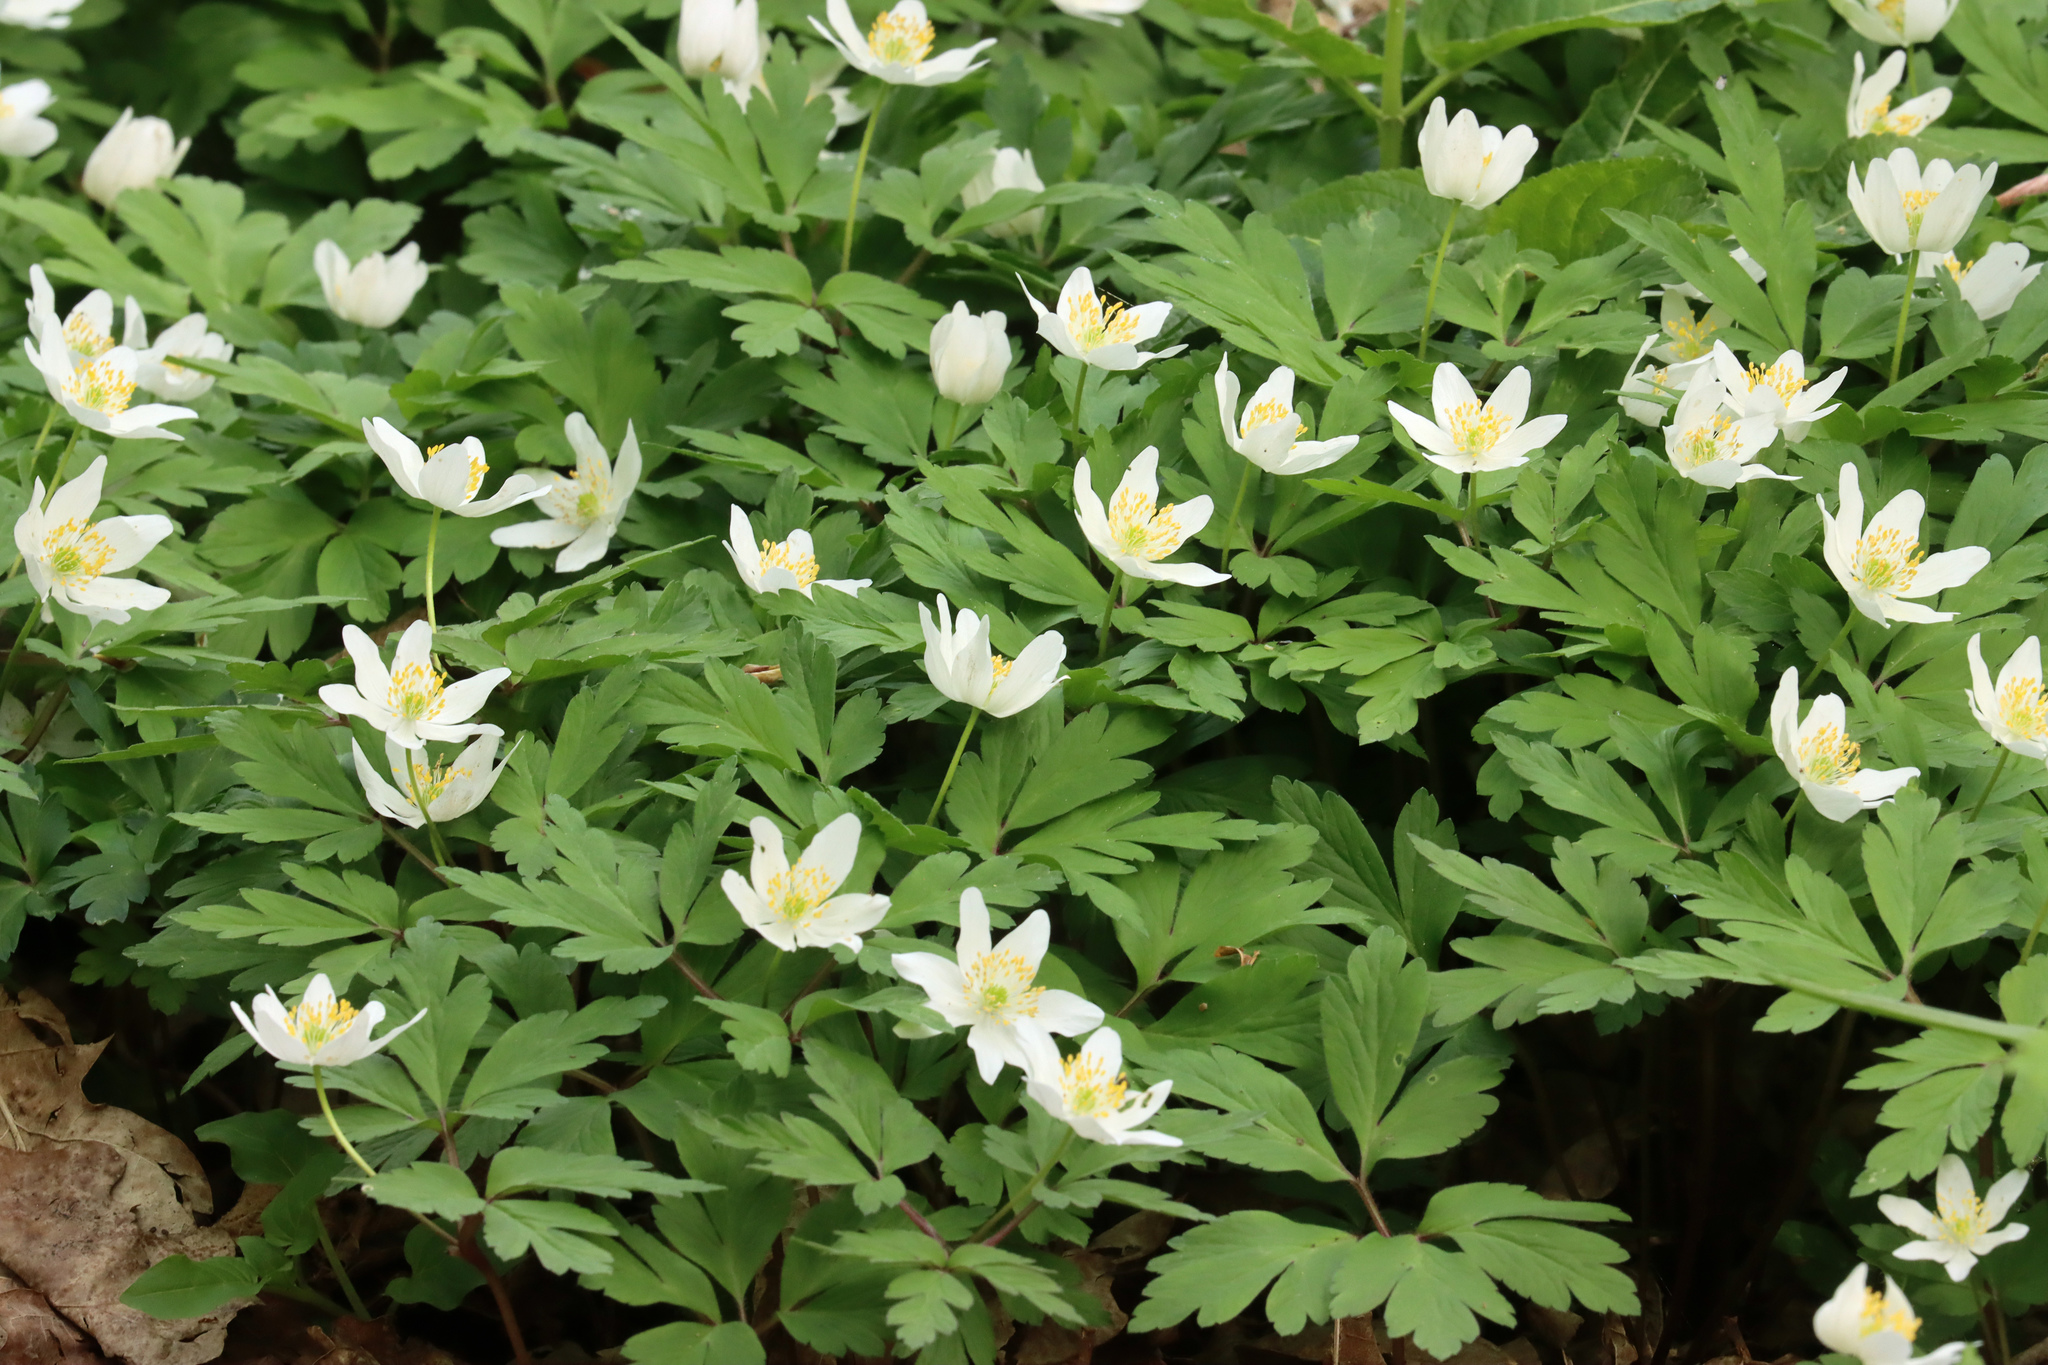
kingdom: Plantae
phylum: Tracheophyta
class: Magnoliopsida
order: Ranunculales
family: Ranunculaceae
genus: Anemone
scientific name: Anemone nemorosa
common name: Wood anemone
